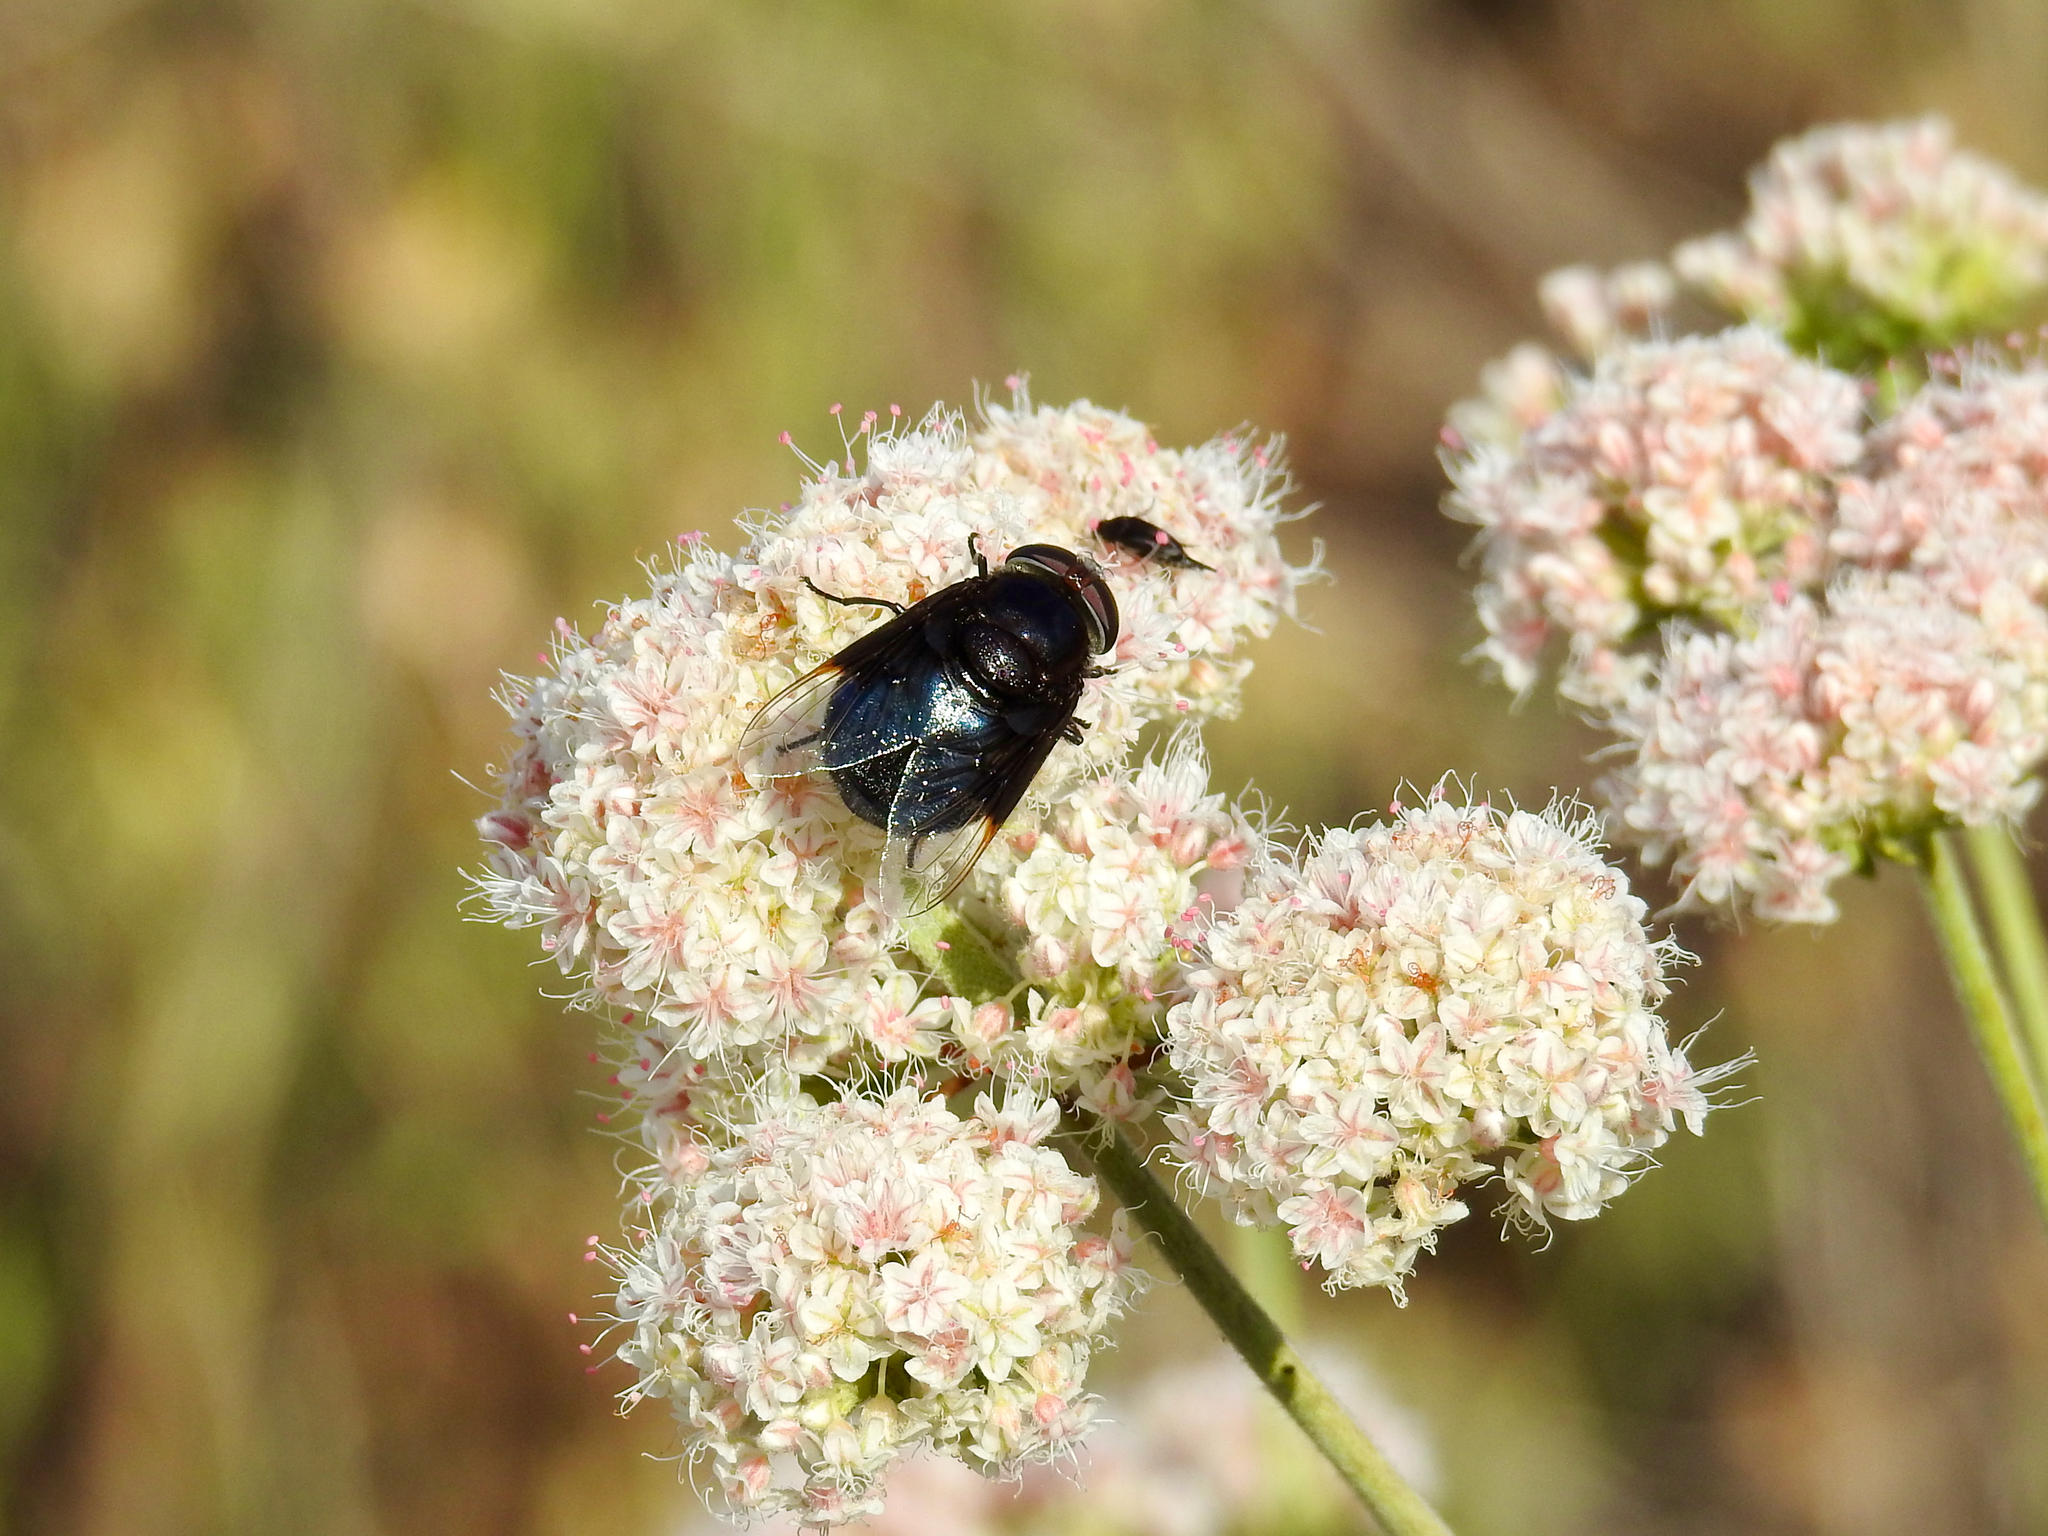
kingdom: Animalia
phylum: Arthropoda
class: Insecta
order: Diptera
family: Syrphidae
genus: Copestylum
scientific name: Copestylum
